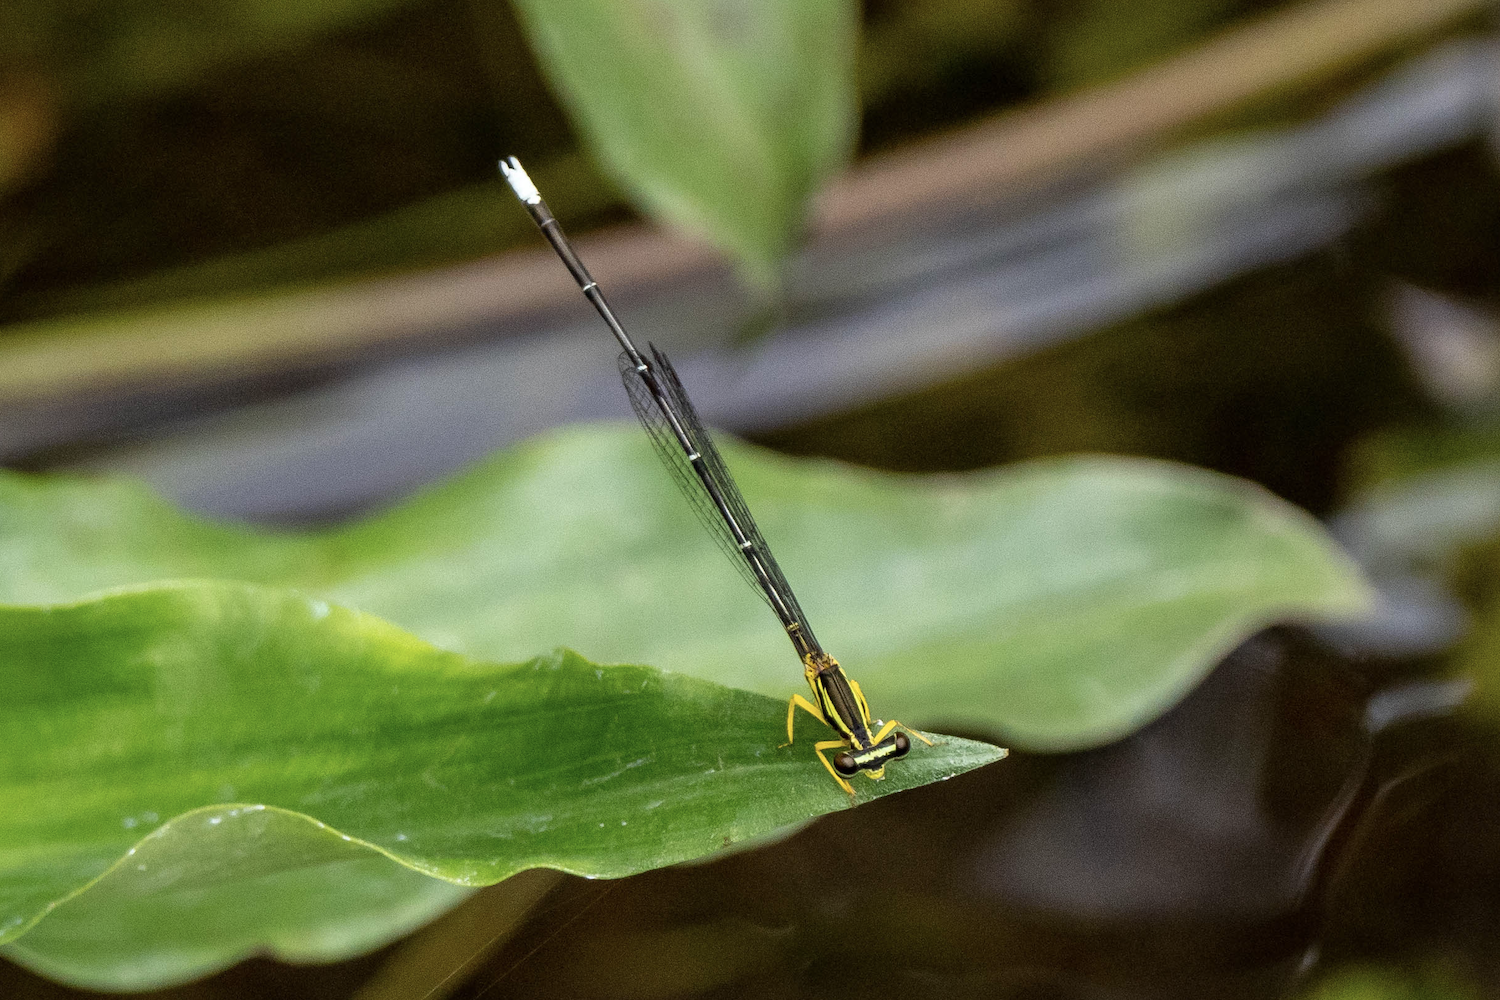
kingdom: Animalia
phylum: Arthropoda
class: Insecta
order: Odonata
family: Platycnemididae
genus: Copera
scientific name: Copera marginipes
